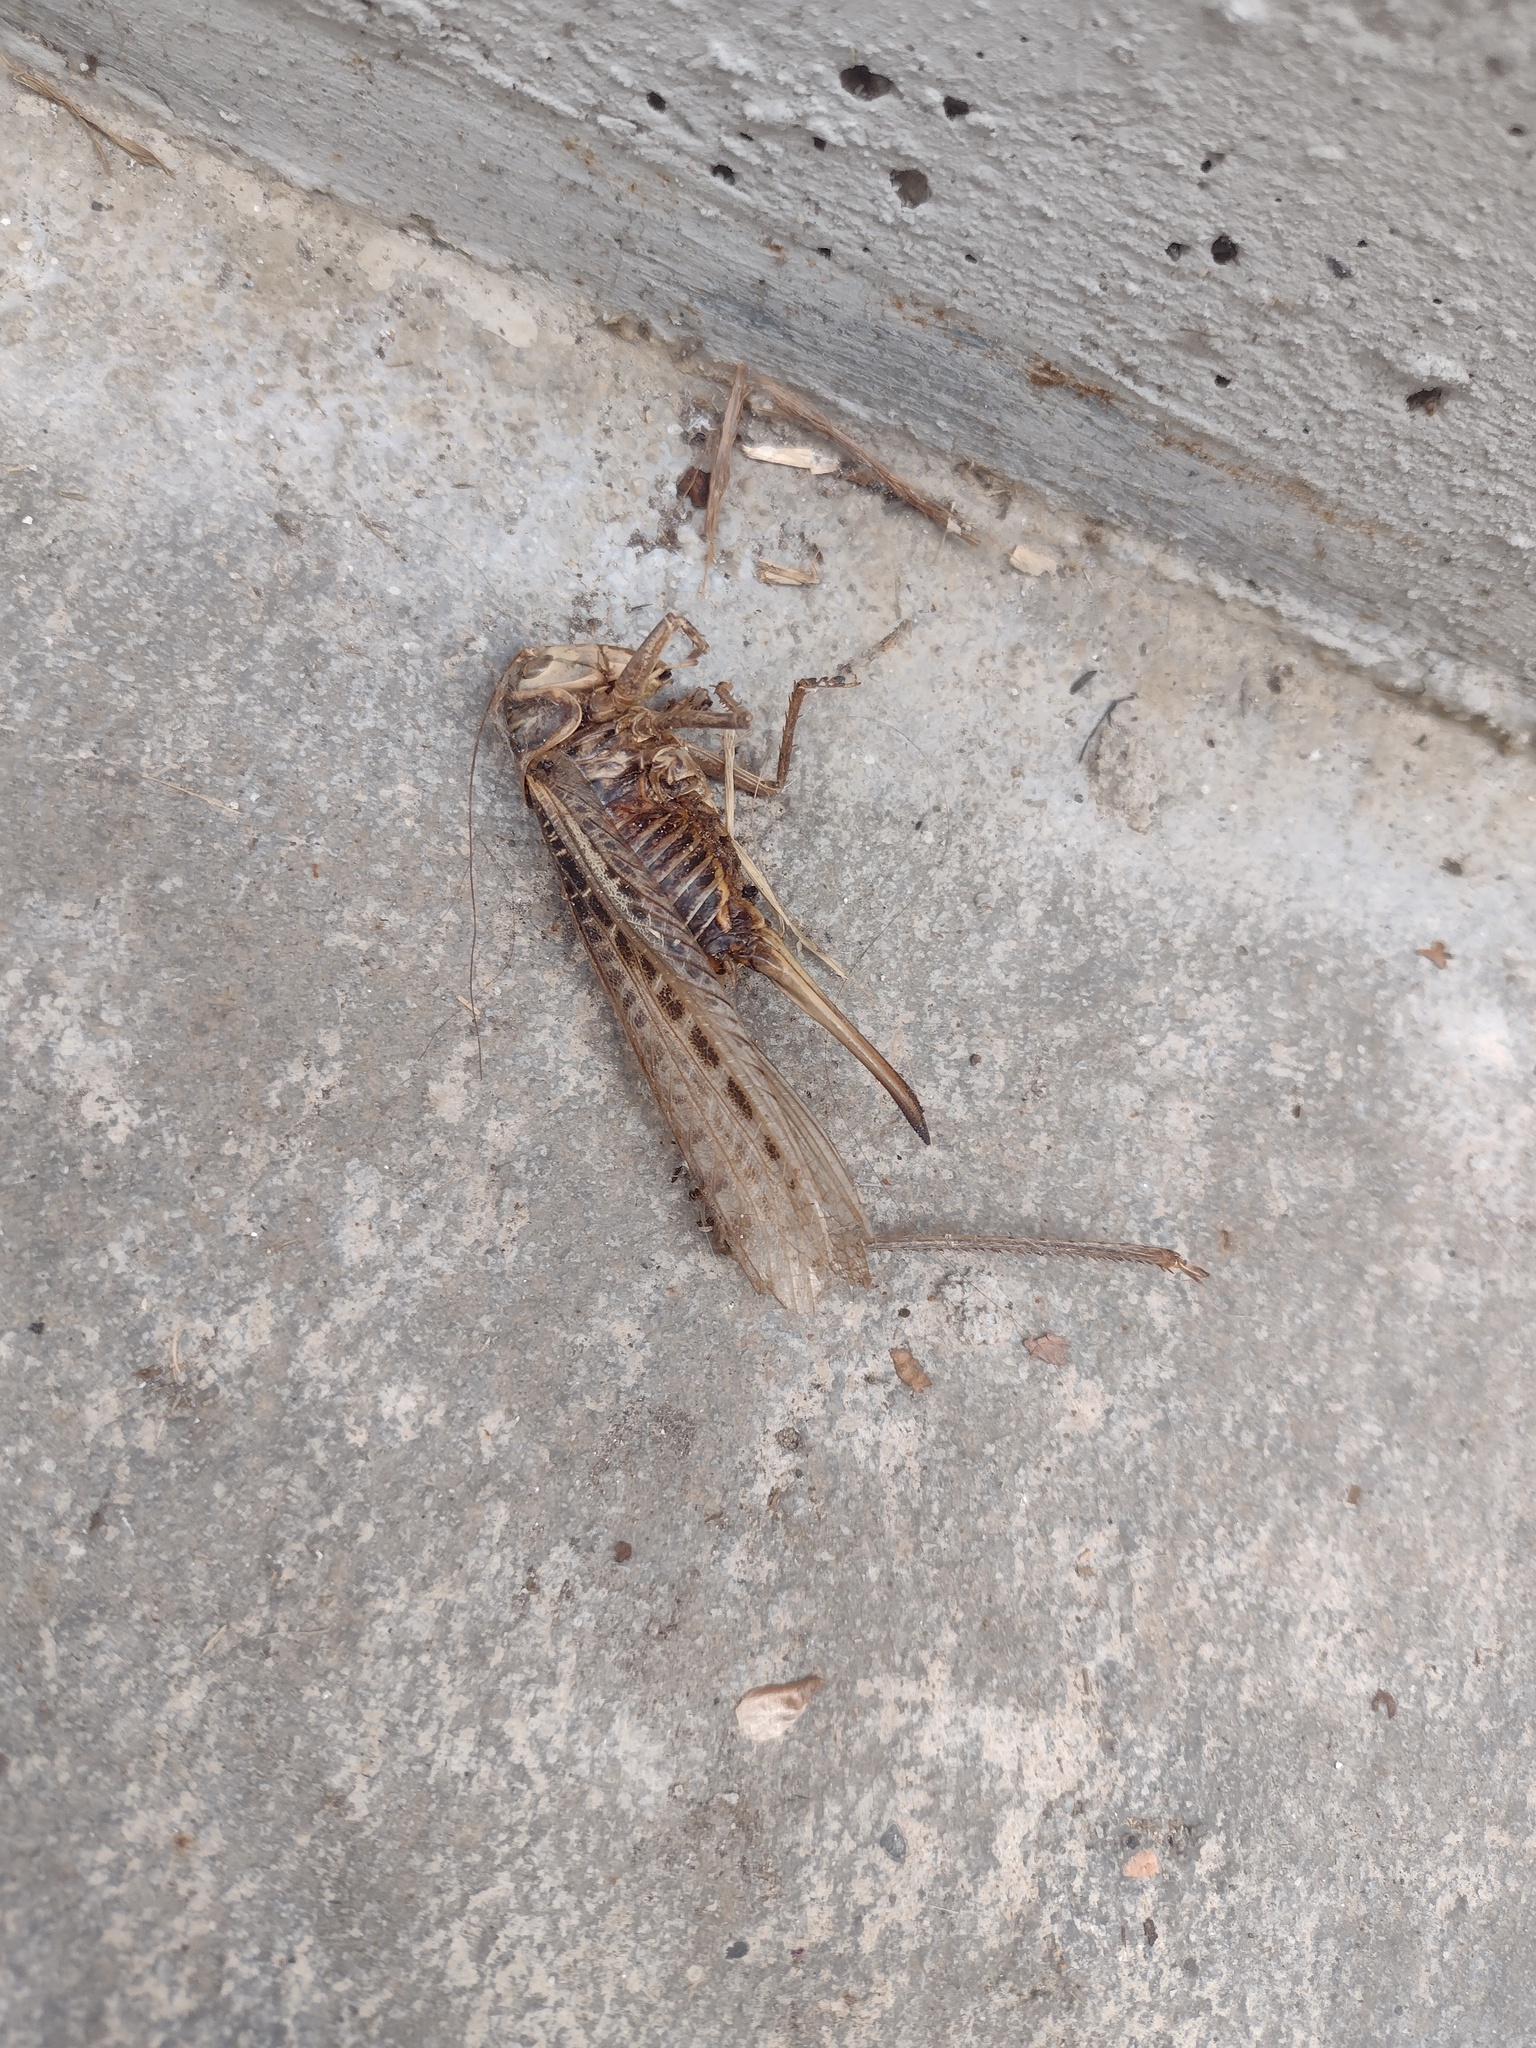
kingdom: Animalia
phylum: Arthropoda
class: Insecta
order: Orthoptera
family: Tettigoniidae
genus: Decticus
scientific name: Decticus albifrons
